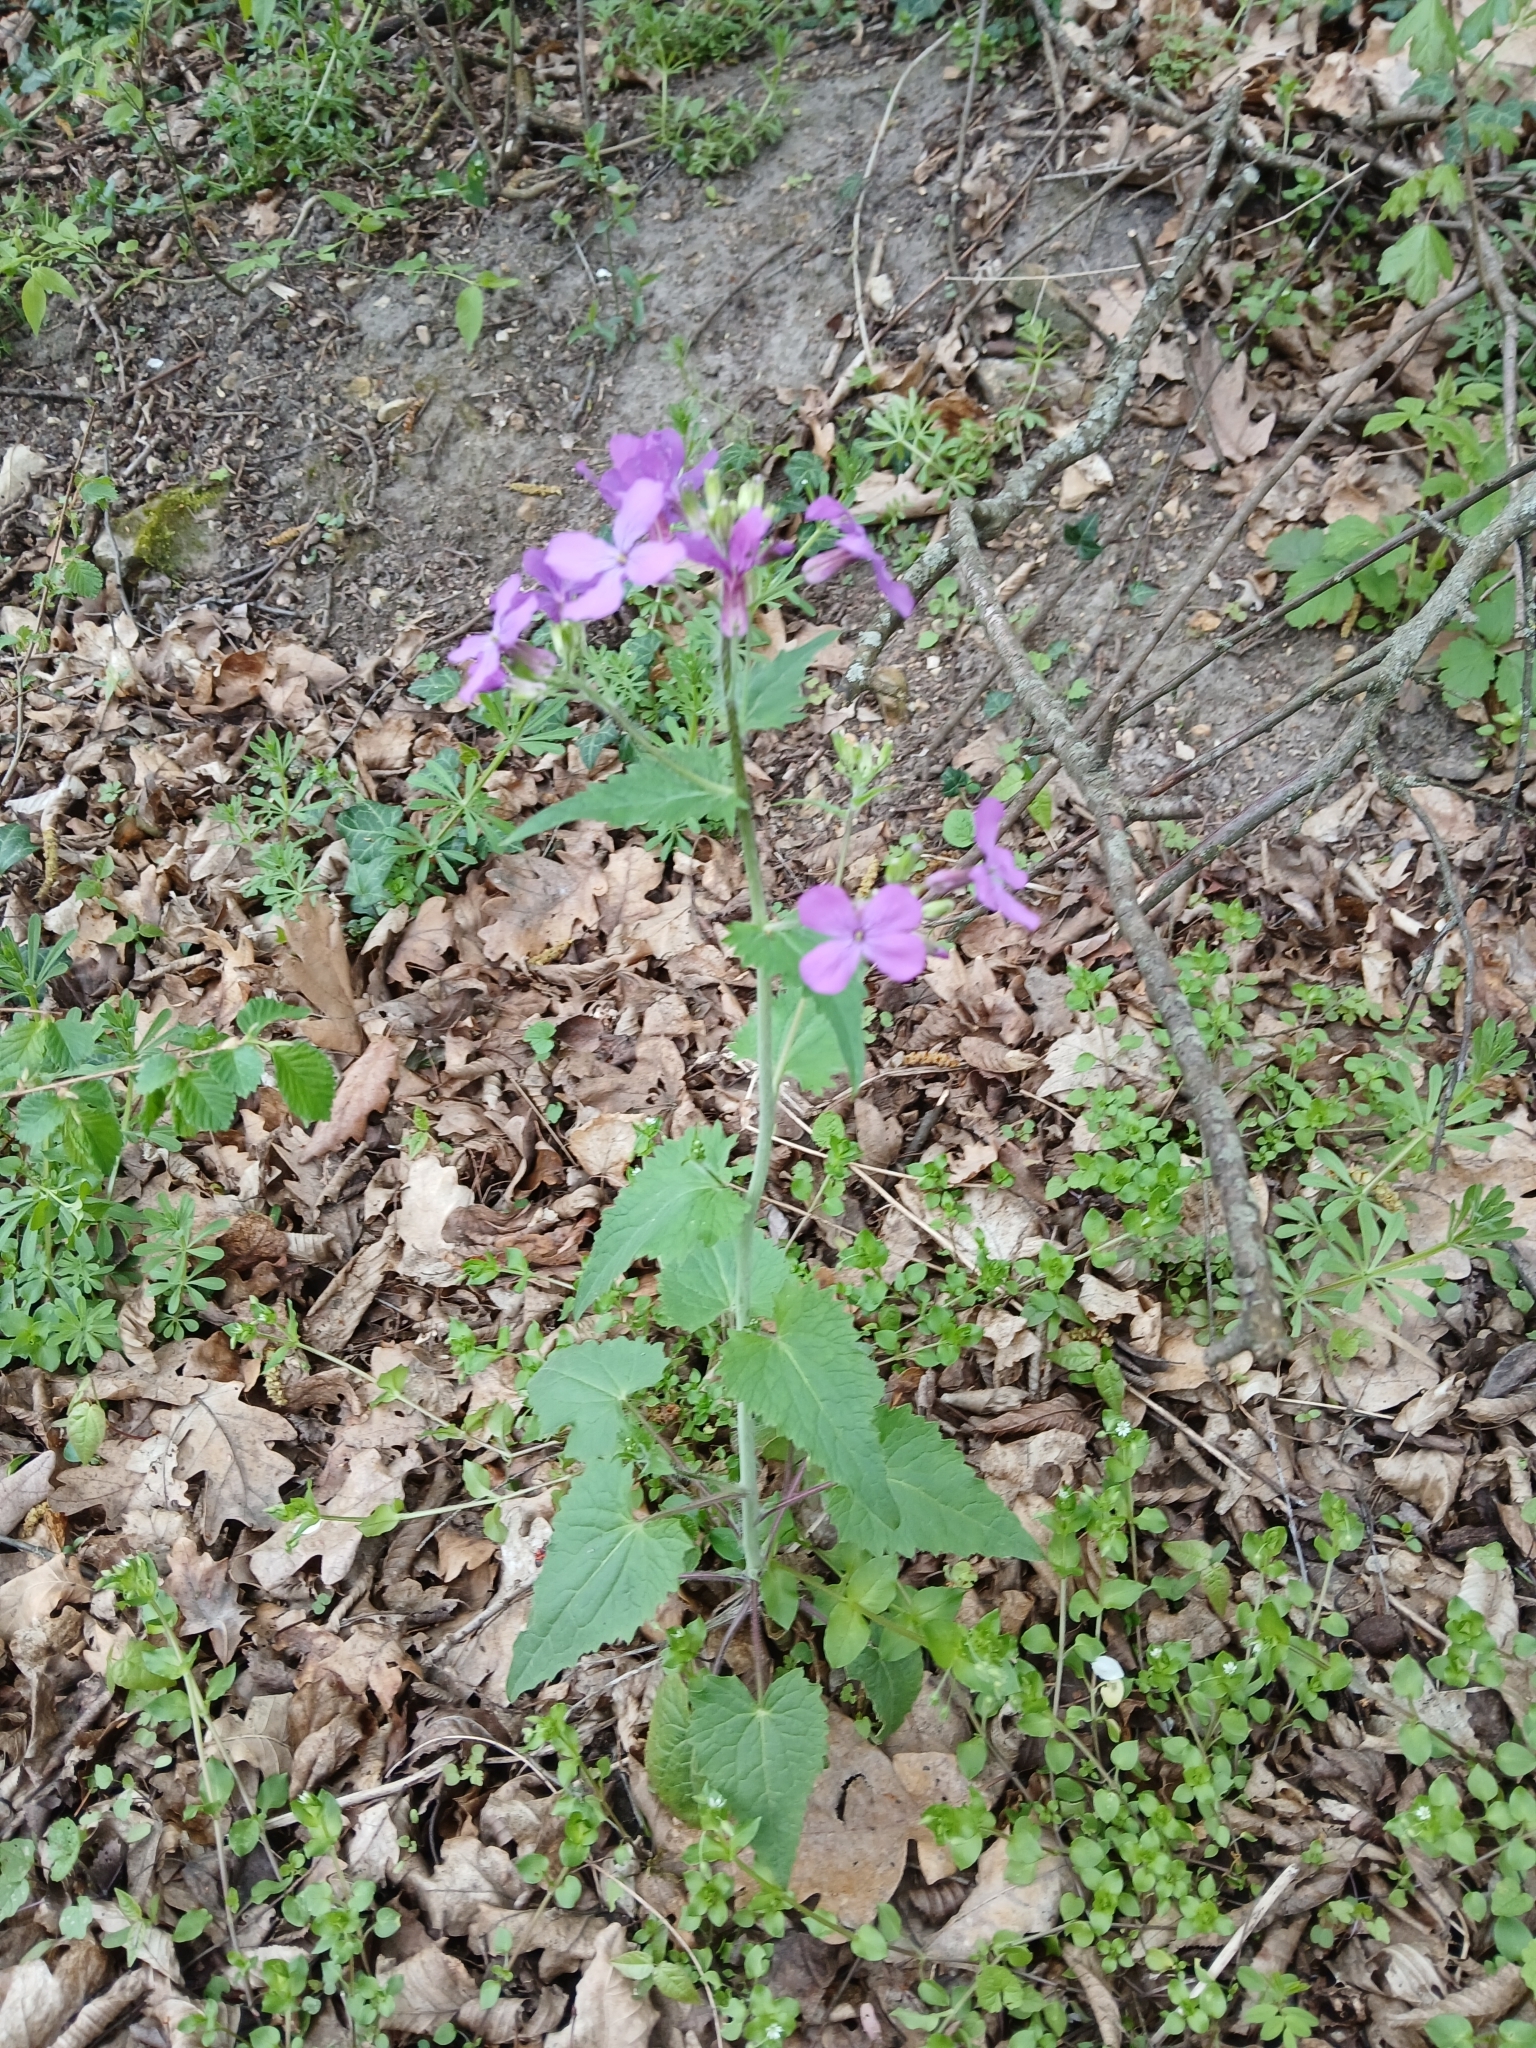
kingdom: Plantae
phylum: Tracheophyta
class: Magnoliopsida
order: Brassicales
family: Brassicaceae
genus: Lunaria
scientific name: Lunaria annua
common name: Honesty
